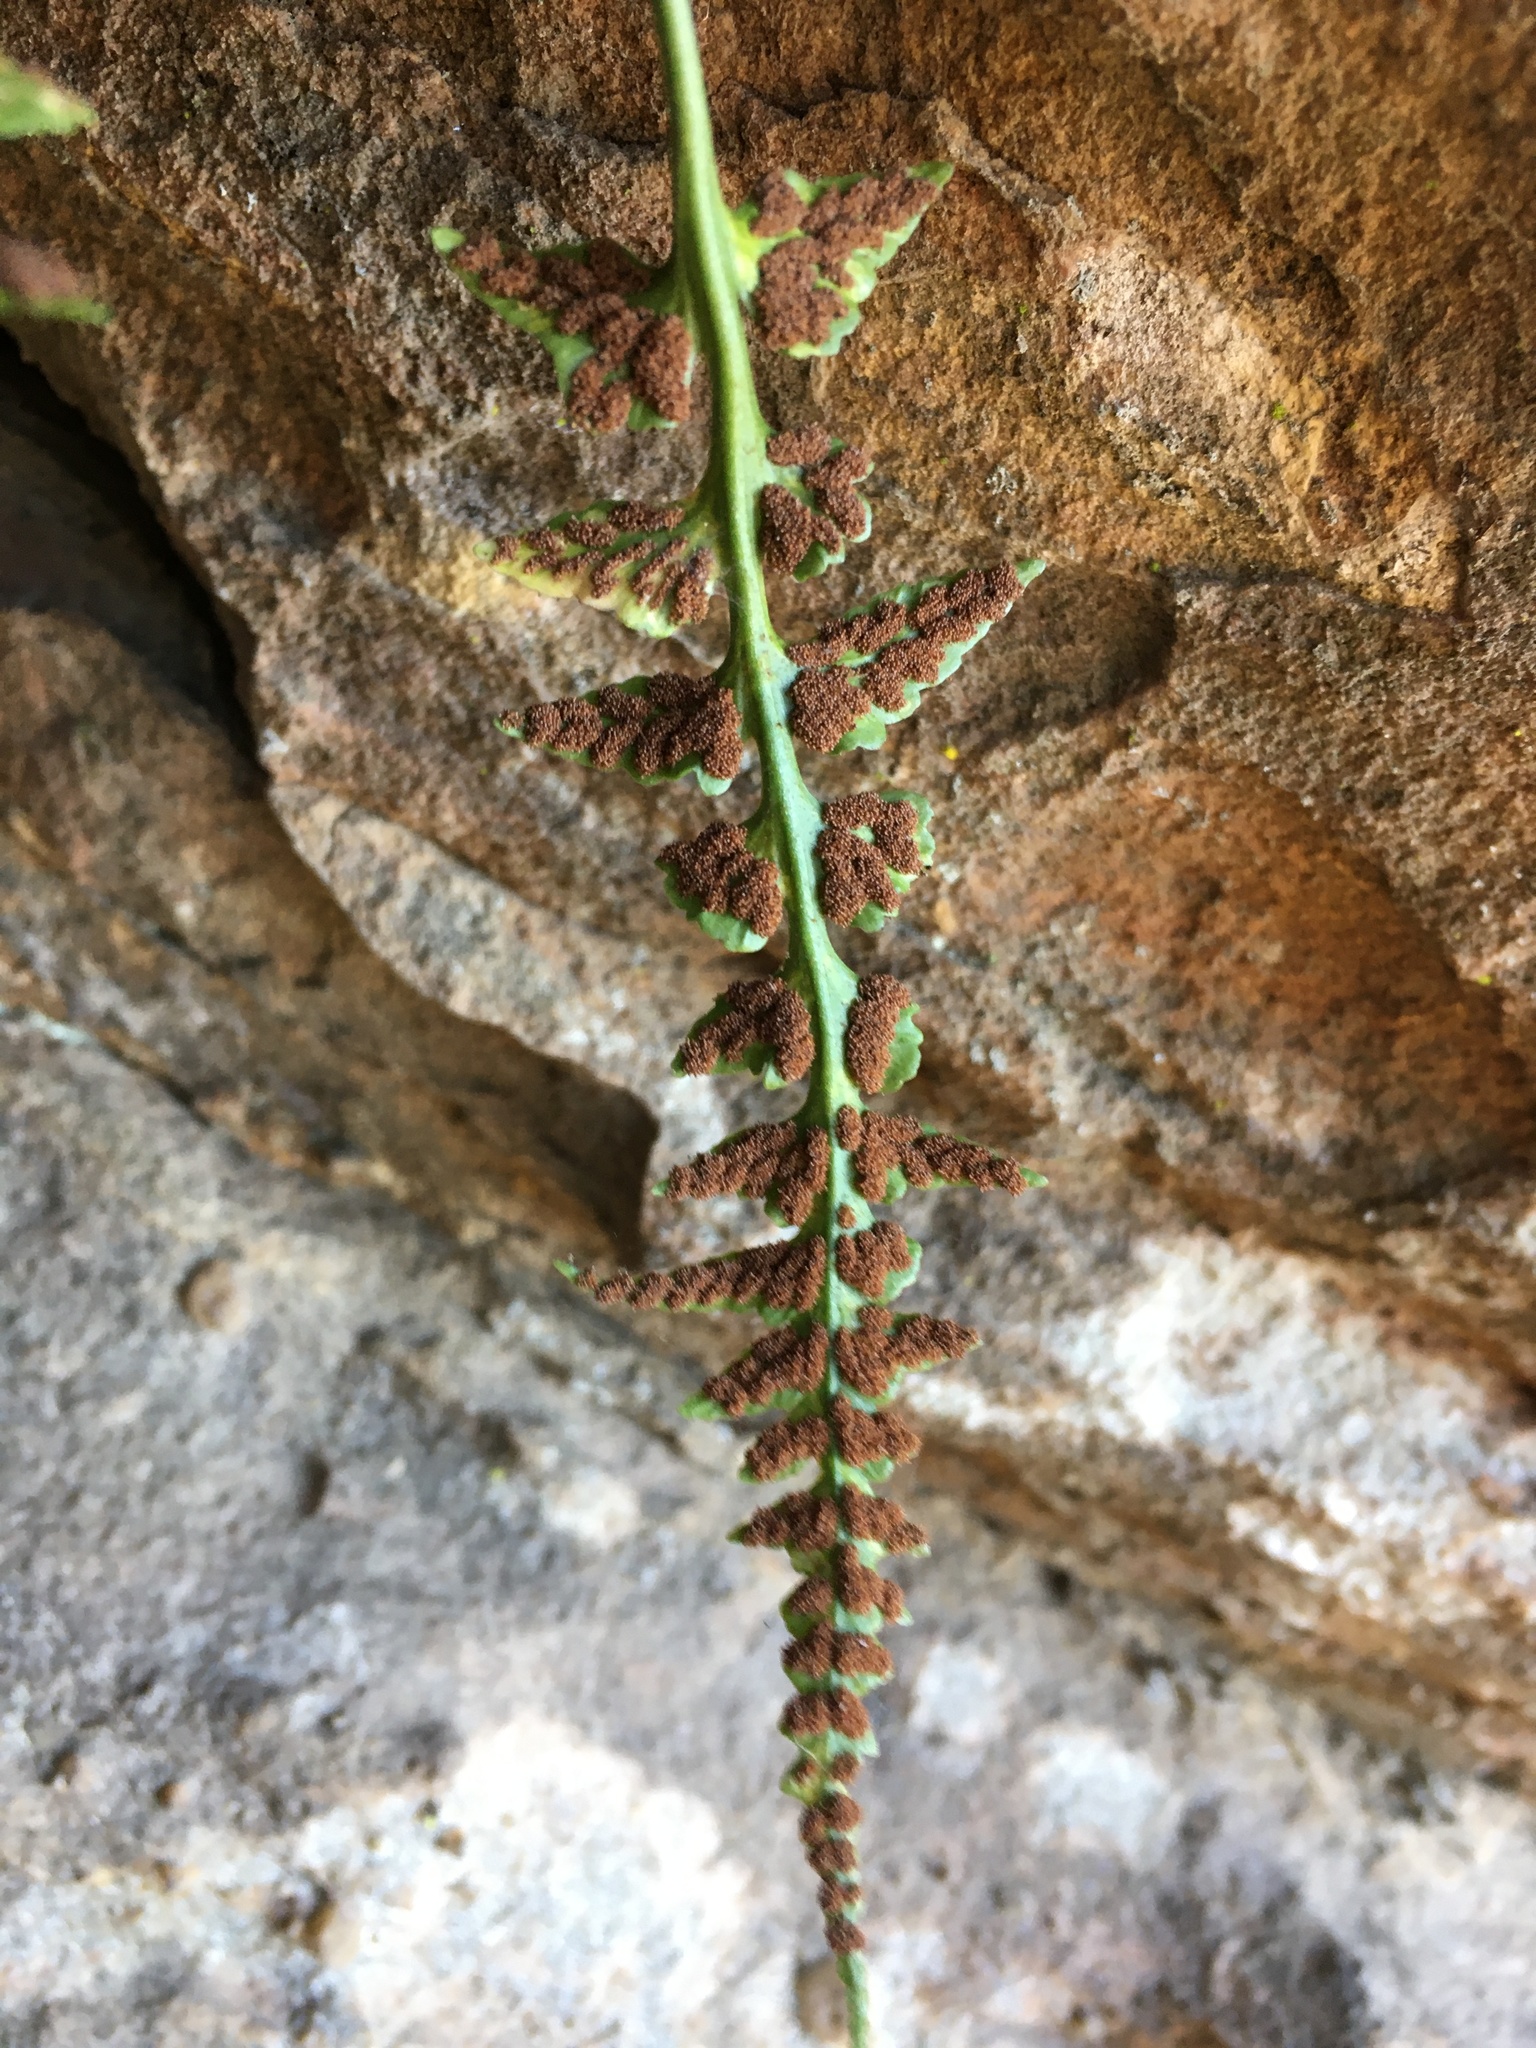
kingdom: Plantae
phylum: Tracheophyta
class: Polypodiopsida
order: Polypodiales
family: Aspleniaceae
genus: Asplenium
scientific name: Asplenium pinnatifidum
